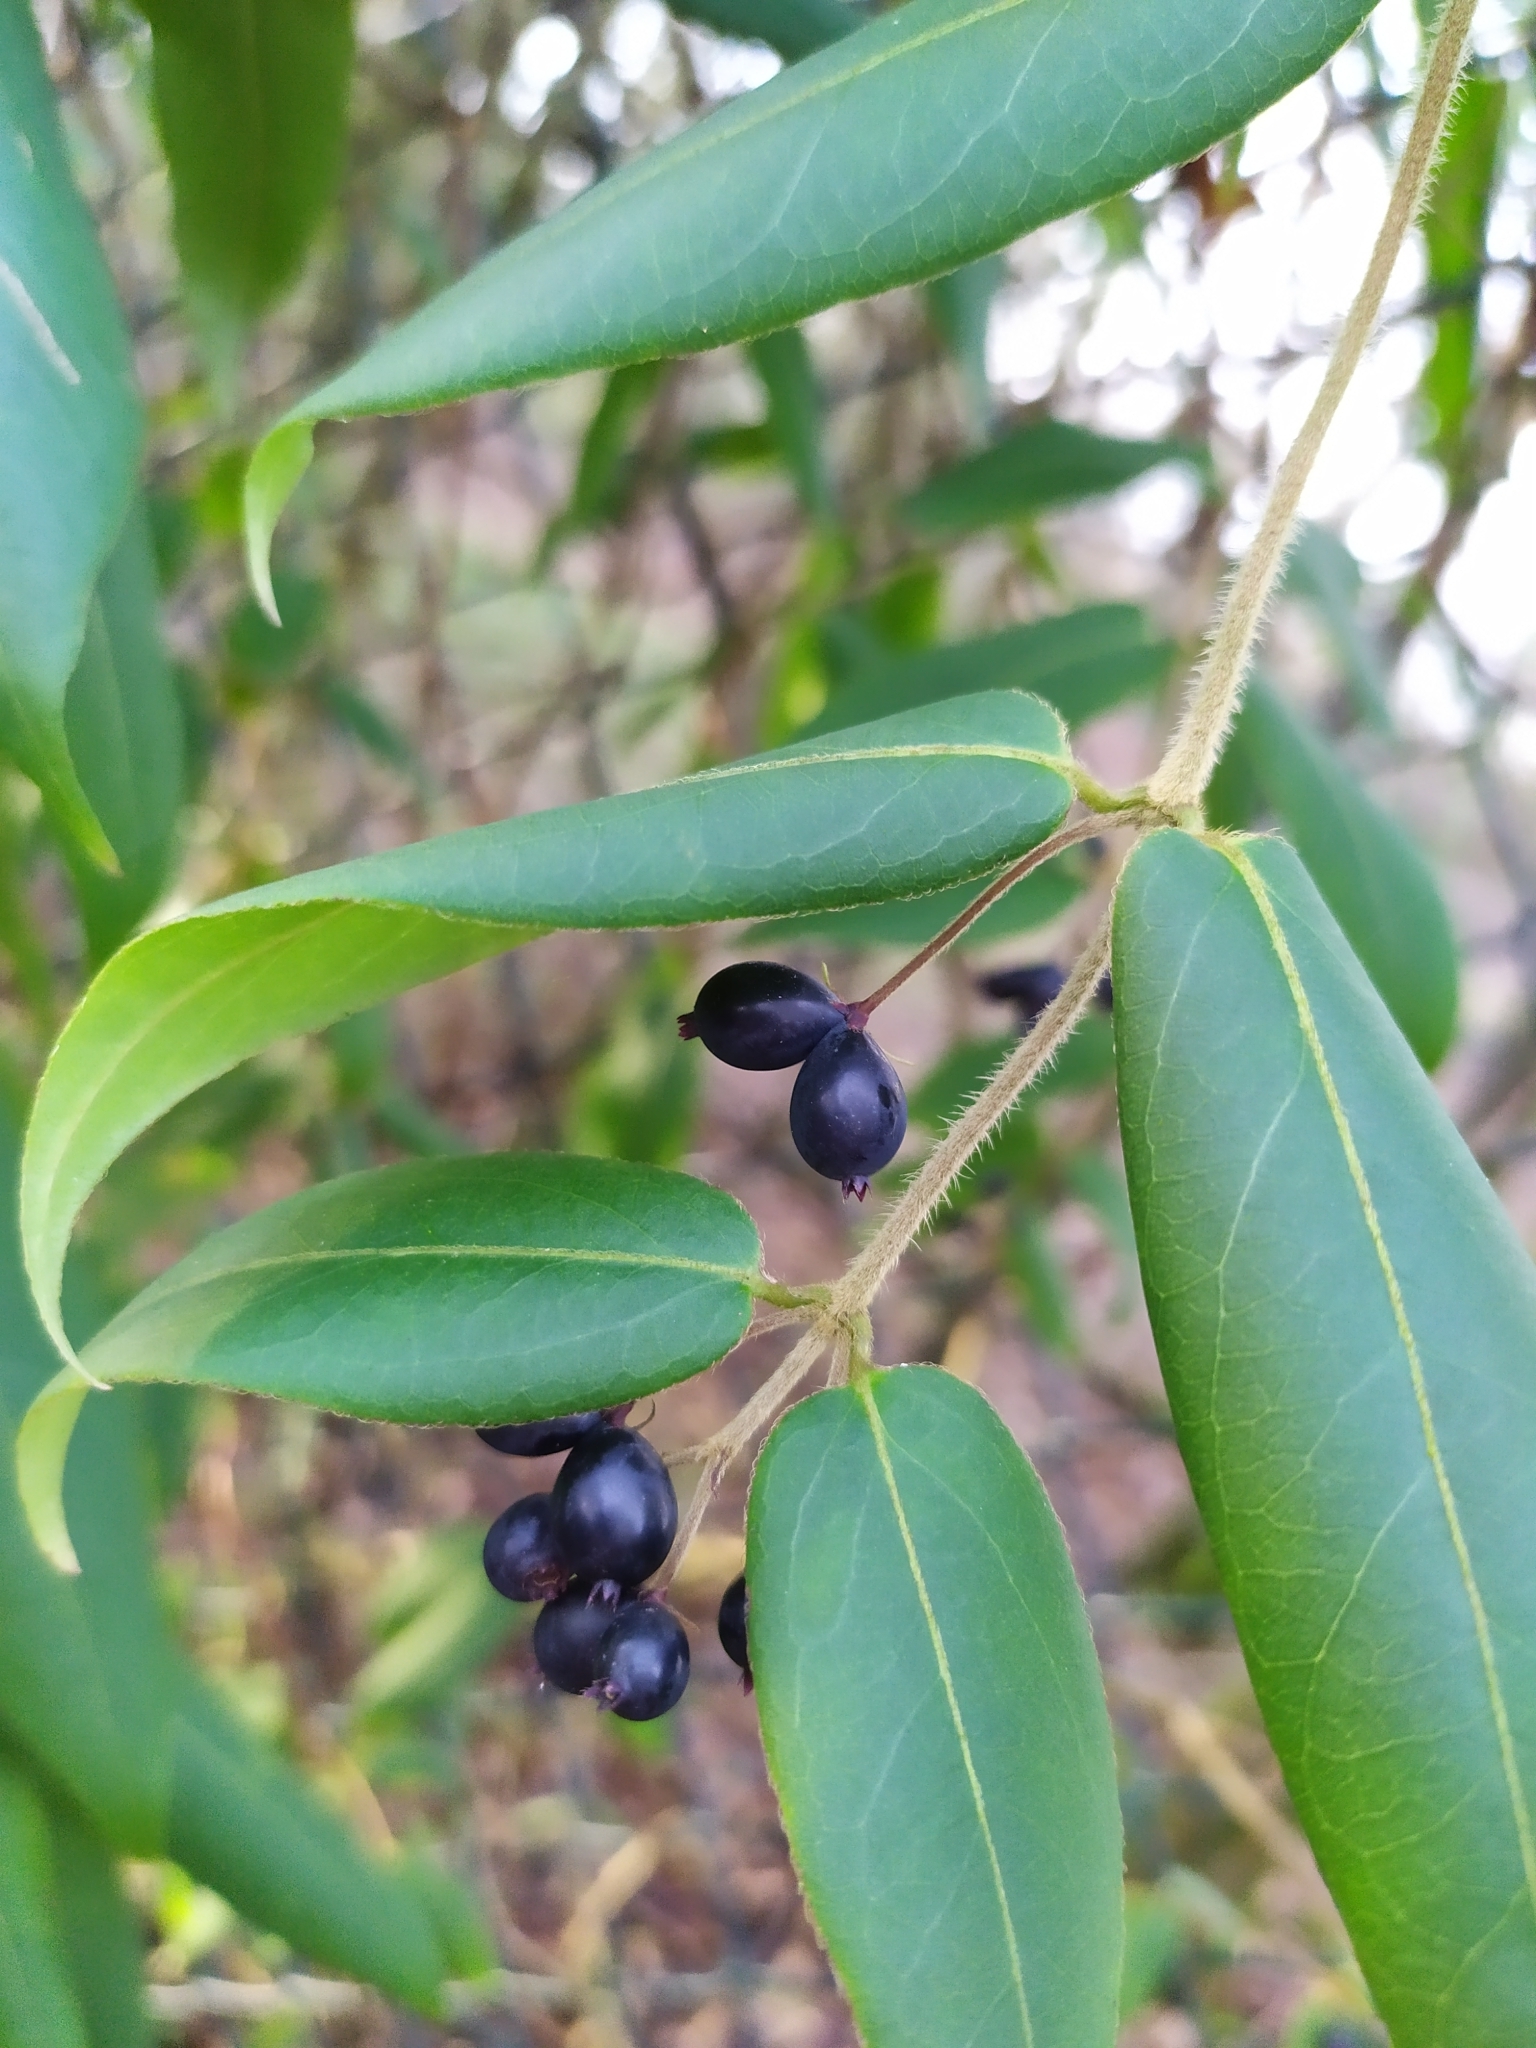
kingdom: Plantae
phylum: Tracheophyta
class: Magnoliopsida
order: Dipsacales
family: Caprifoliaceae
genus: Lonicera
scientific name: Lonicera acuminata
